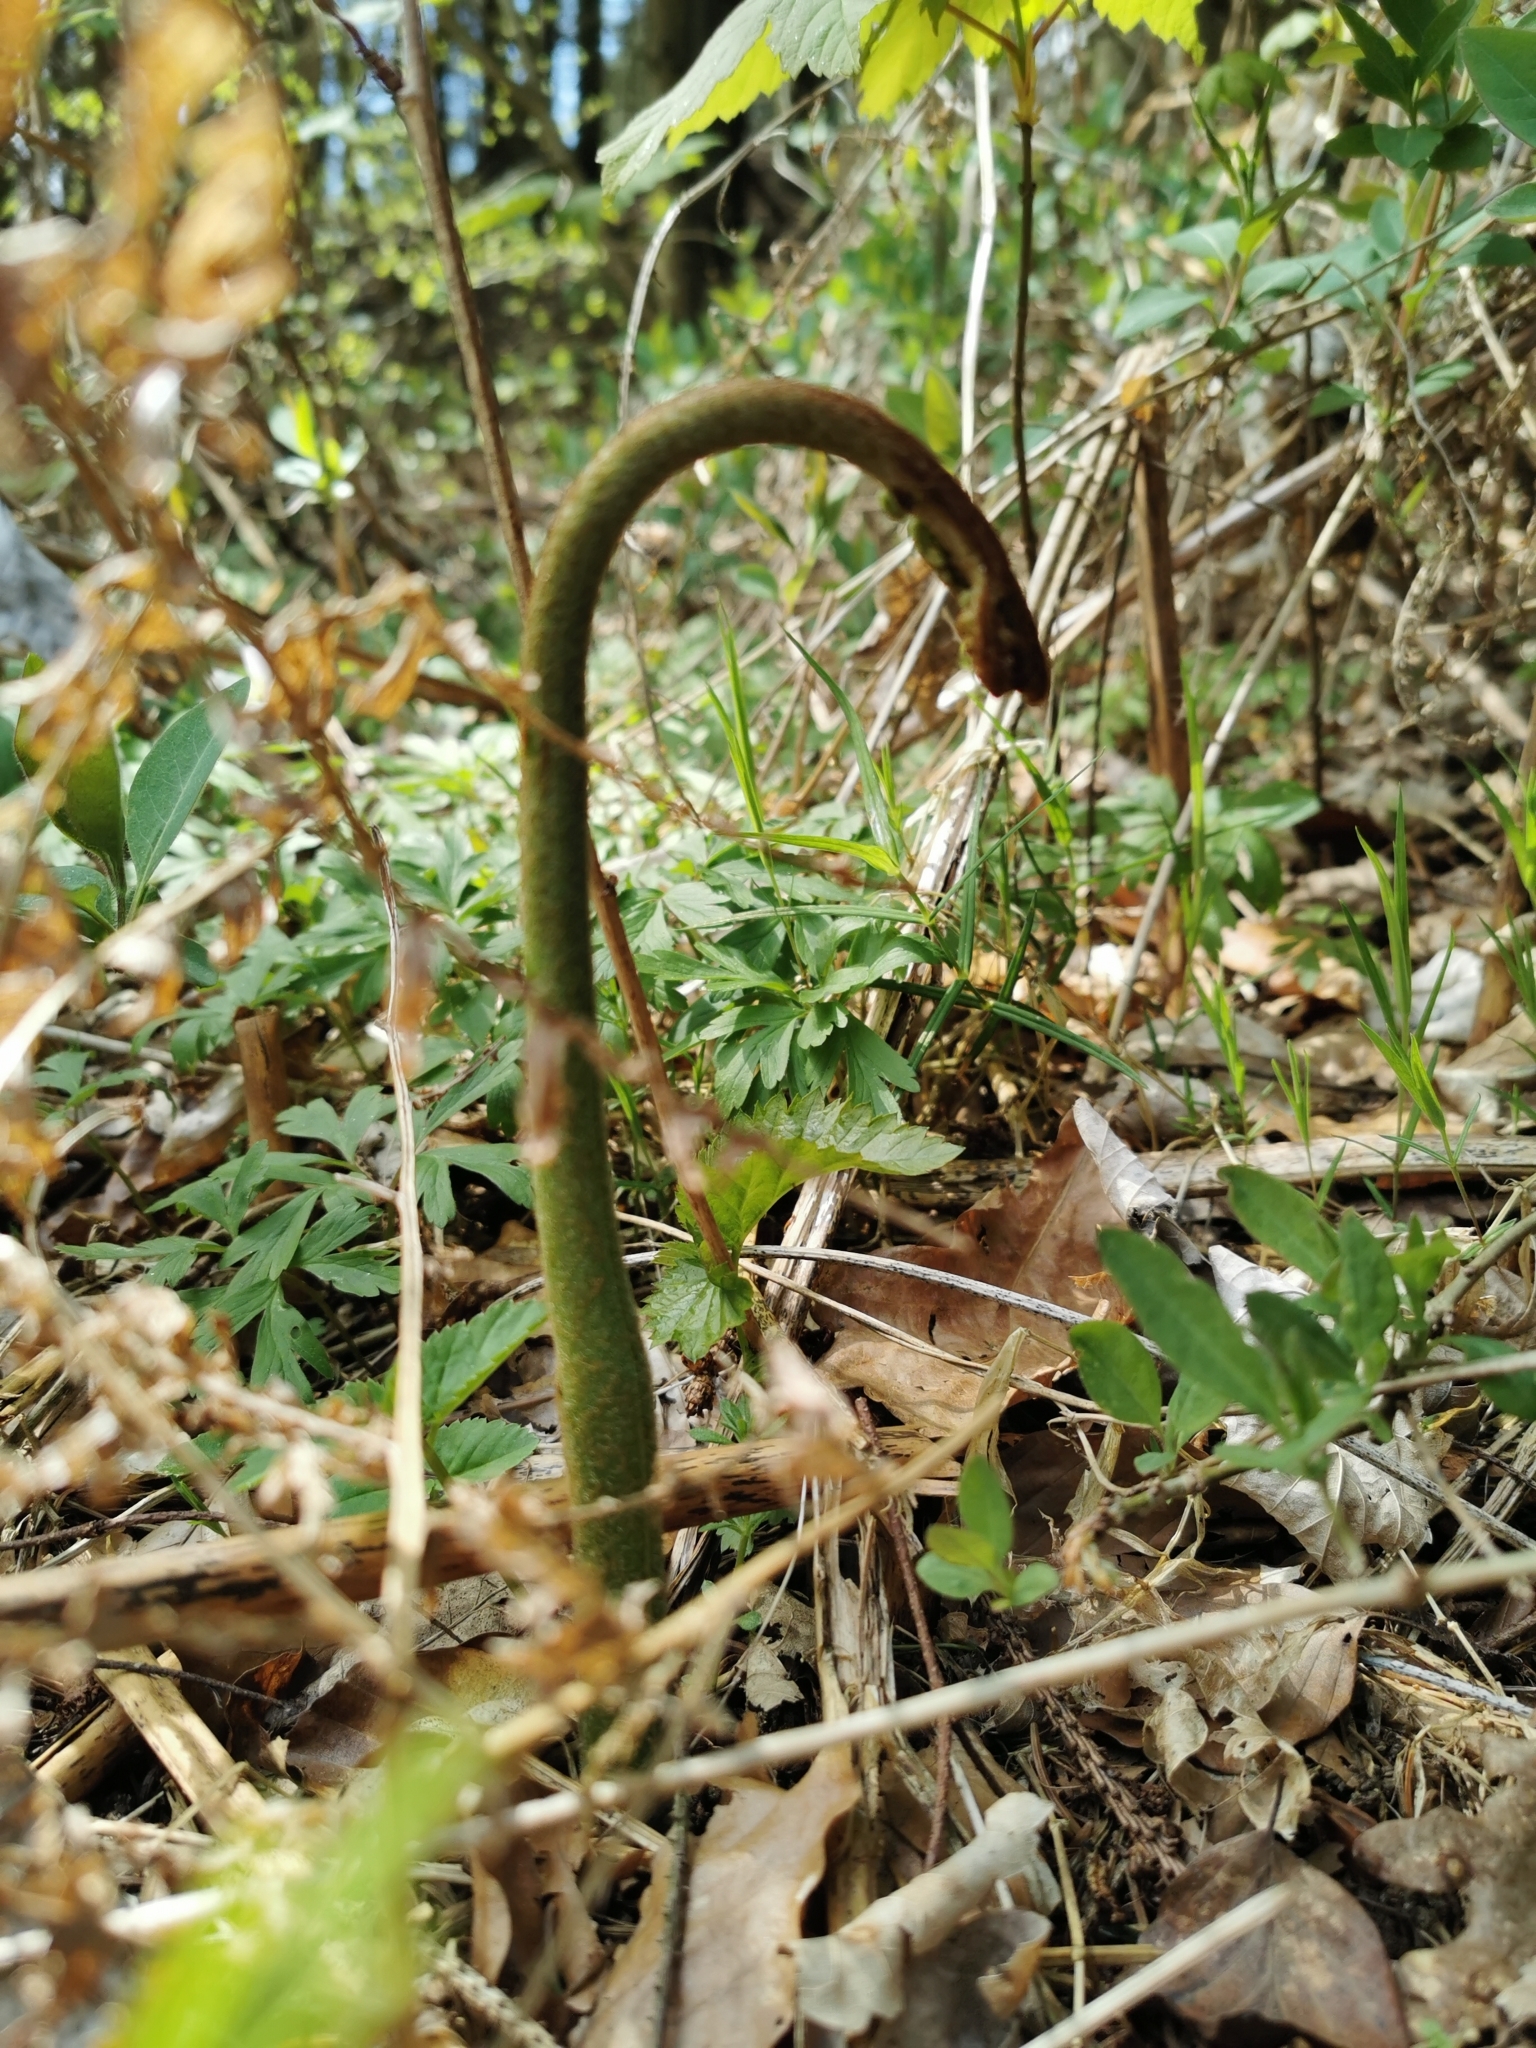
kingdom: Plantae
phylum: Tracheophyta
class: Polypodiopsida
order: Polypodiales
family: Dennstaedtiaceae
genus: Pteridium
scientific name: Pteridium aquilinum
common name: Bracken
